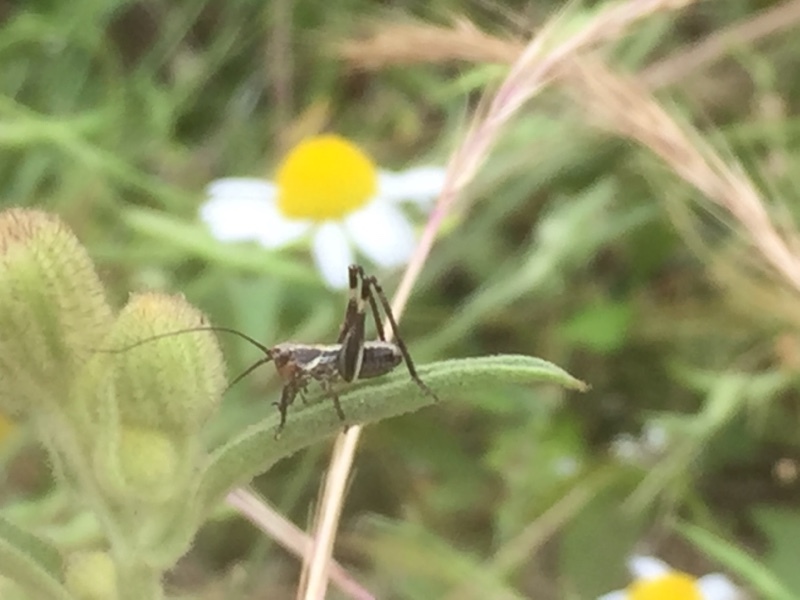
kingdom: Animalia
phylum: Arthropoda
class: Insecta
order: Orthoptera
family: Tettigoniidae
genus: Antaxius
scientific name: Antaxius spinibrachius
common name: Spiny-legged bush-cricket
